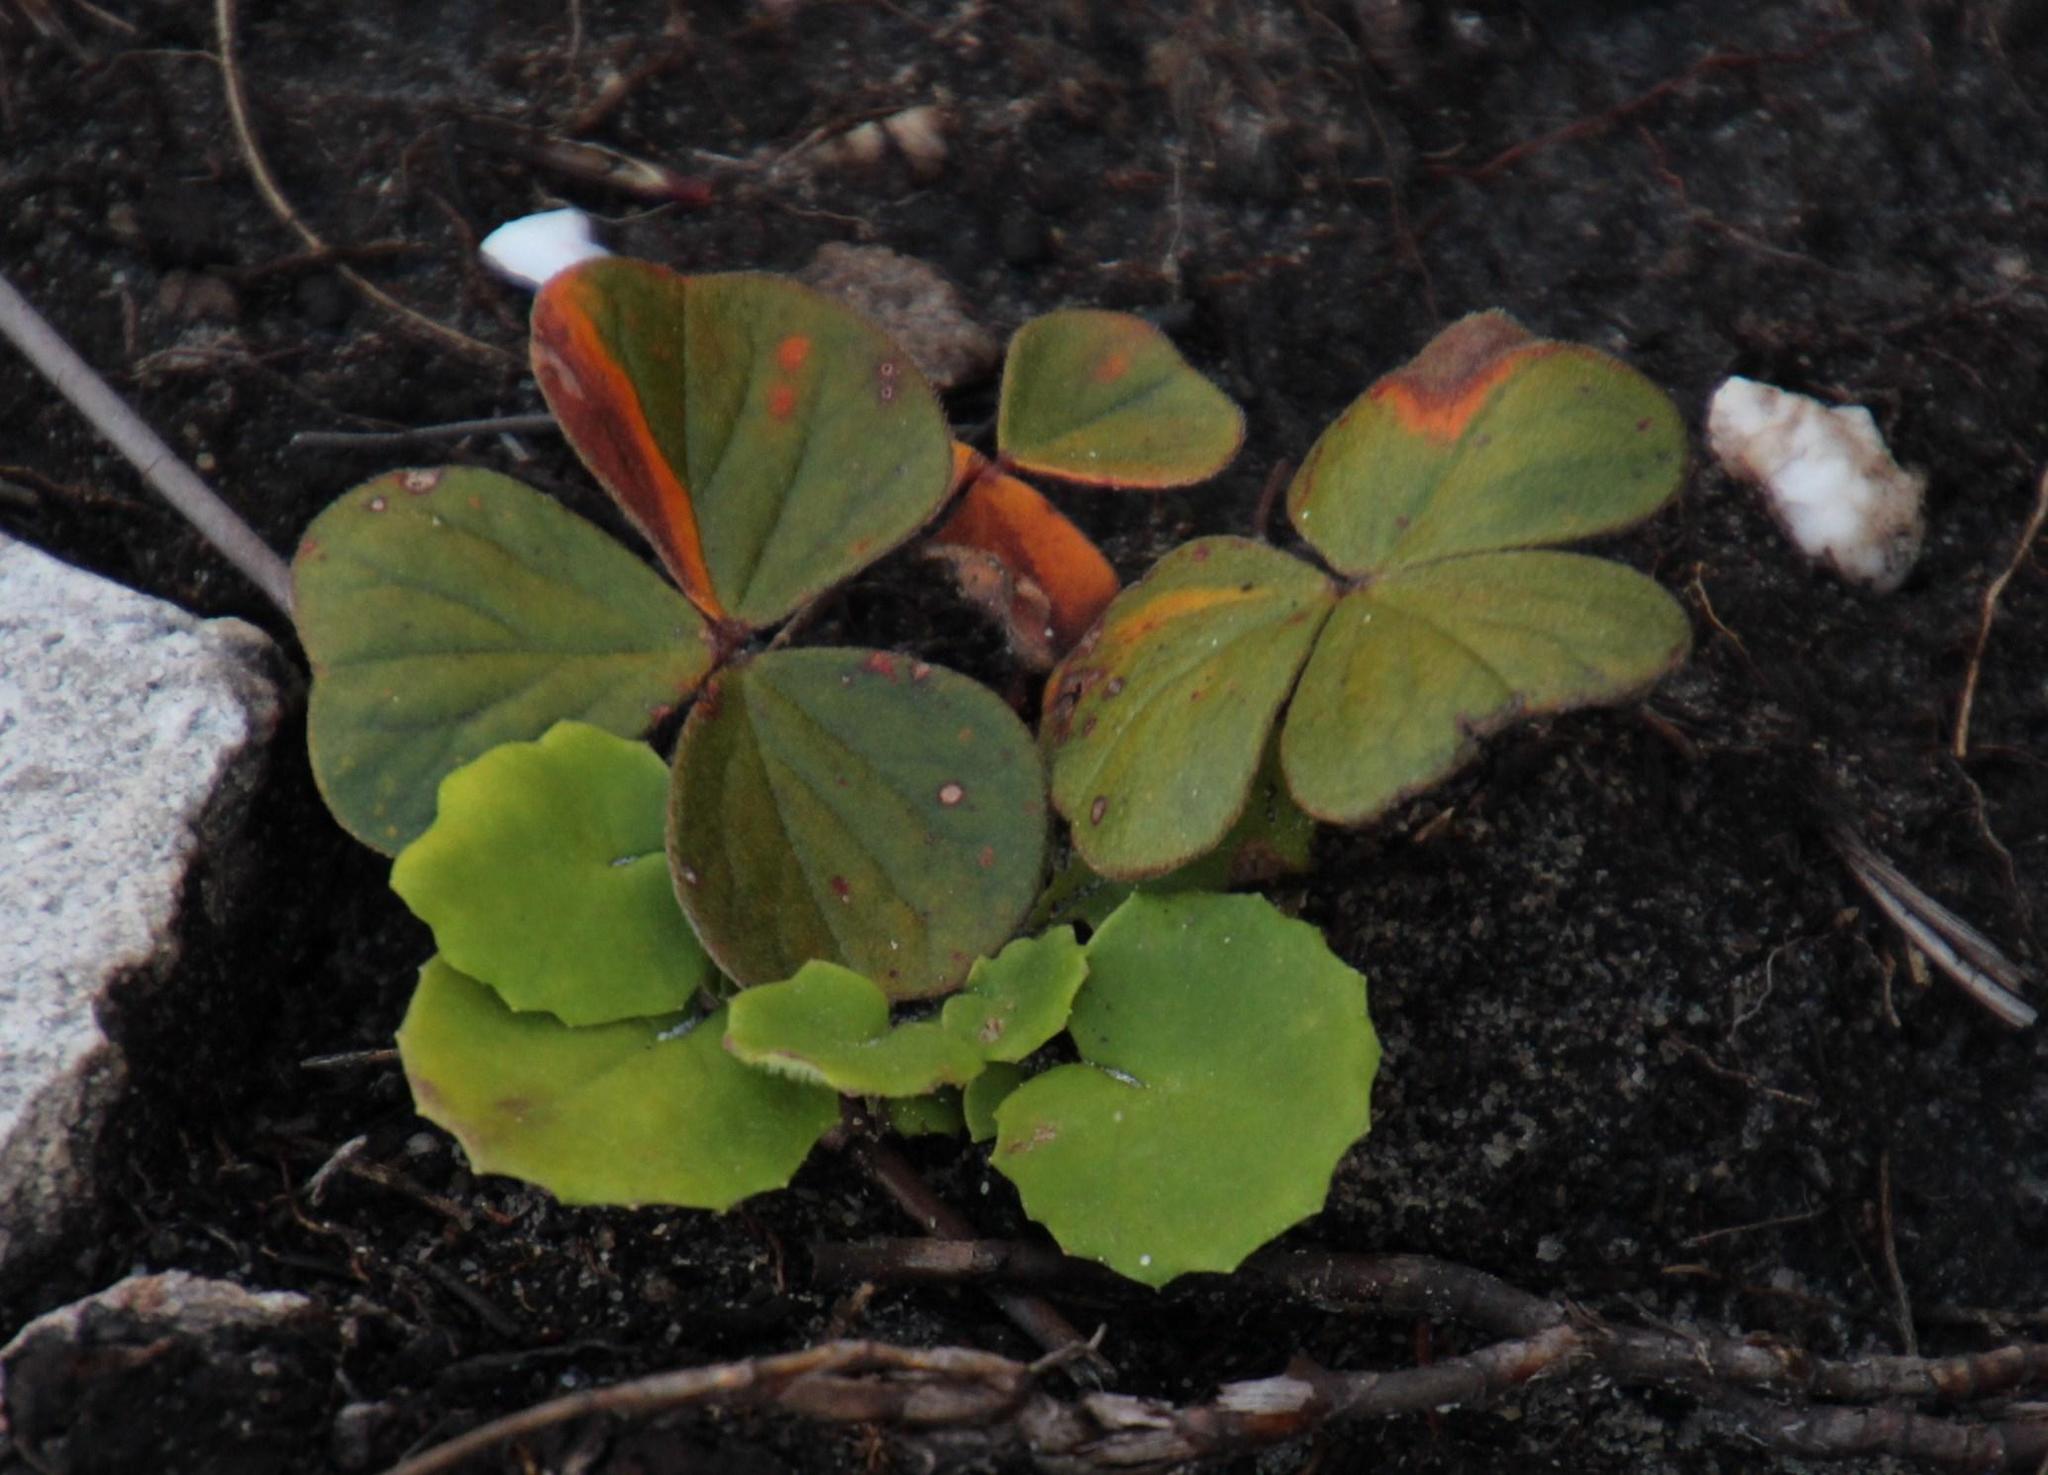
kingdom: Plantae
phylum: Tracheophyta
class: Magnoliopsida
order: Oxalidales
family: Oxalidaceae
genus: Oxalis
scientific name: Oxalis truncatula
